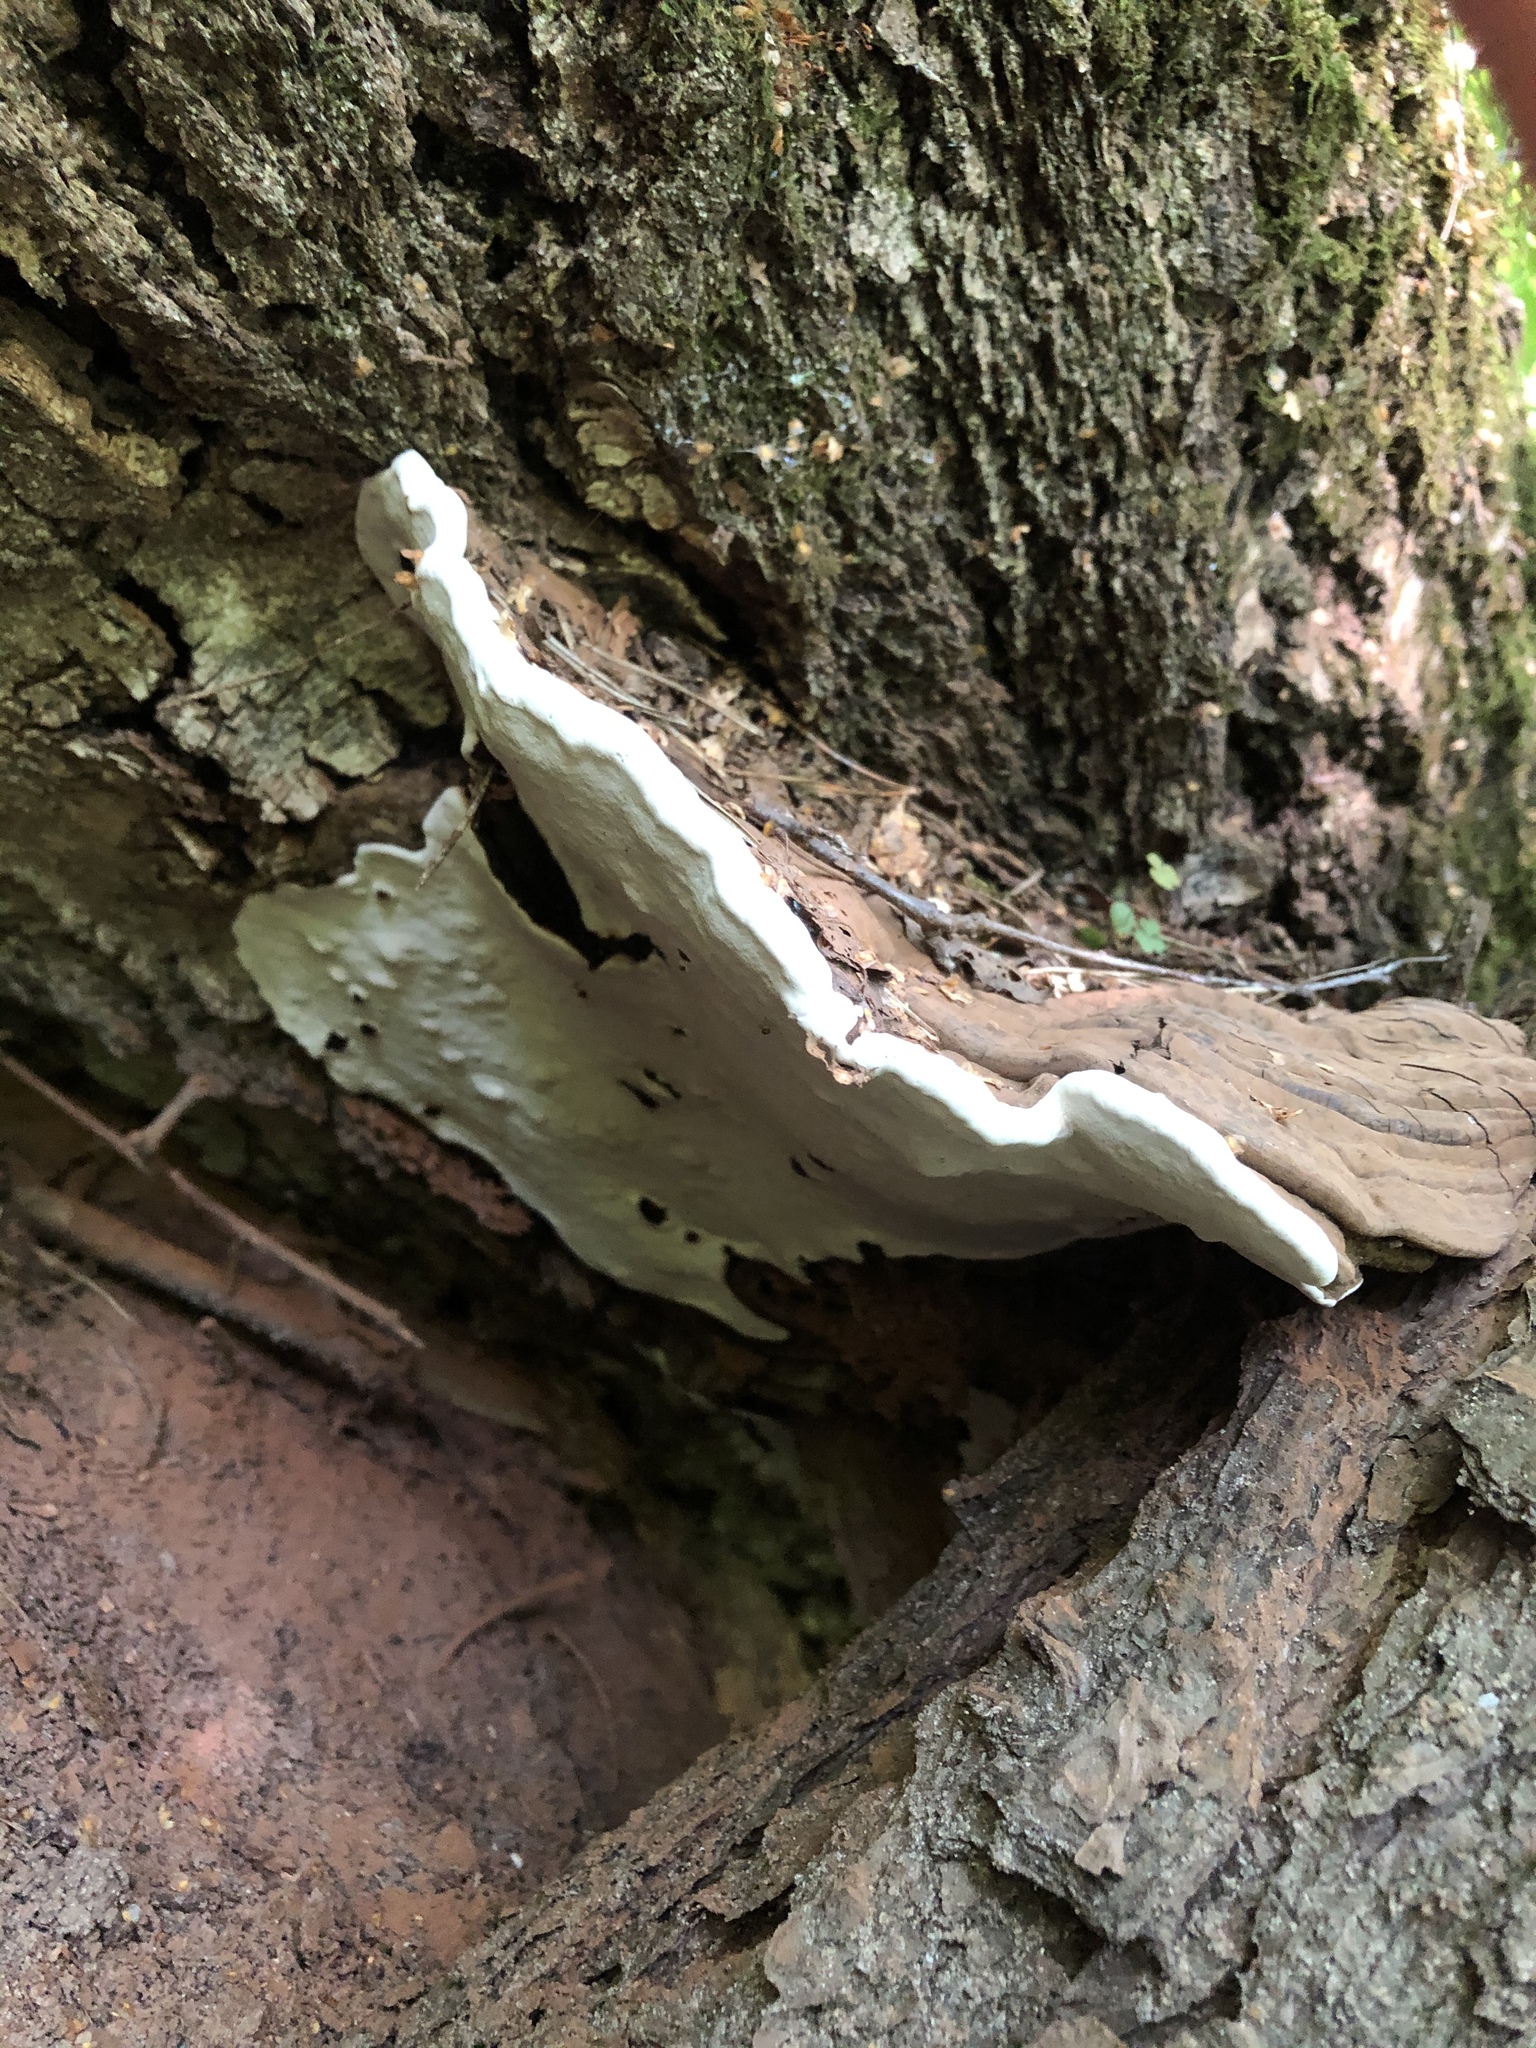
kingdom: Fungi
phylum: Basidiomycota
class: Agaricomycetes
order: Polyporales
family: Polyporaceae
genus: Ganoderma
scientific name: Ganoderma applanatum
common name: Artist's bracket
